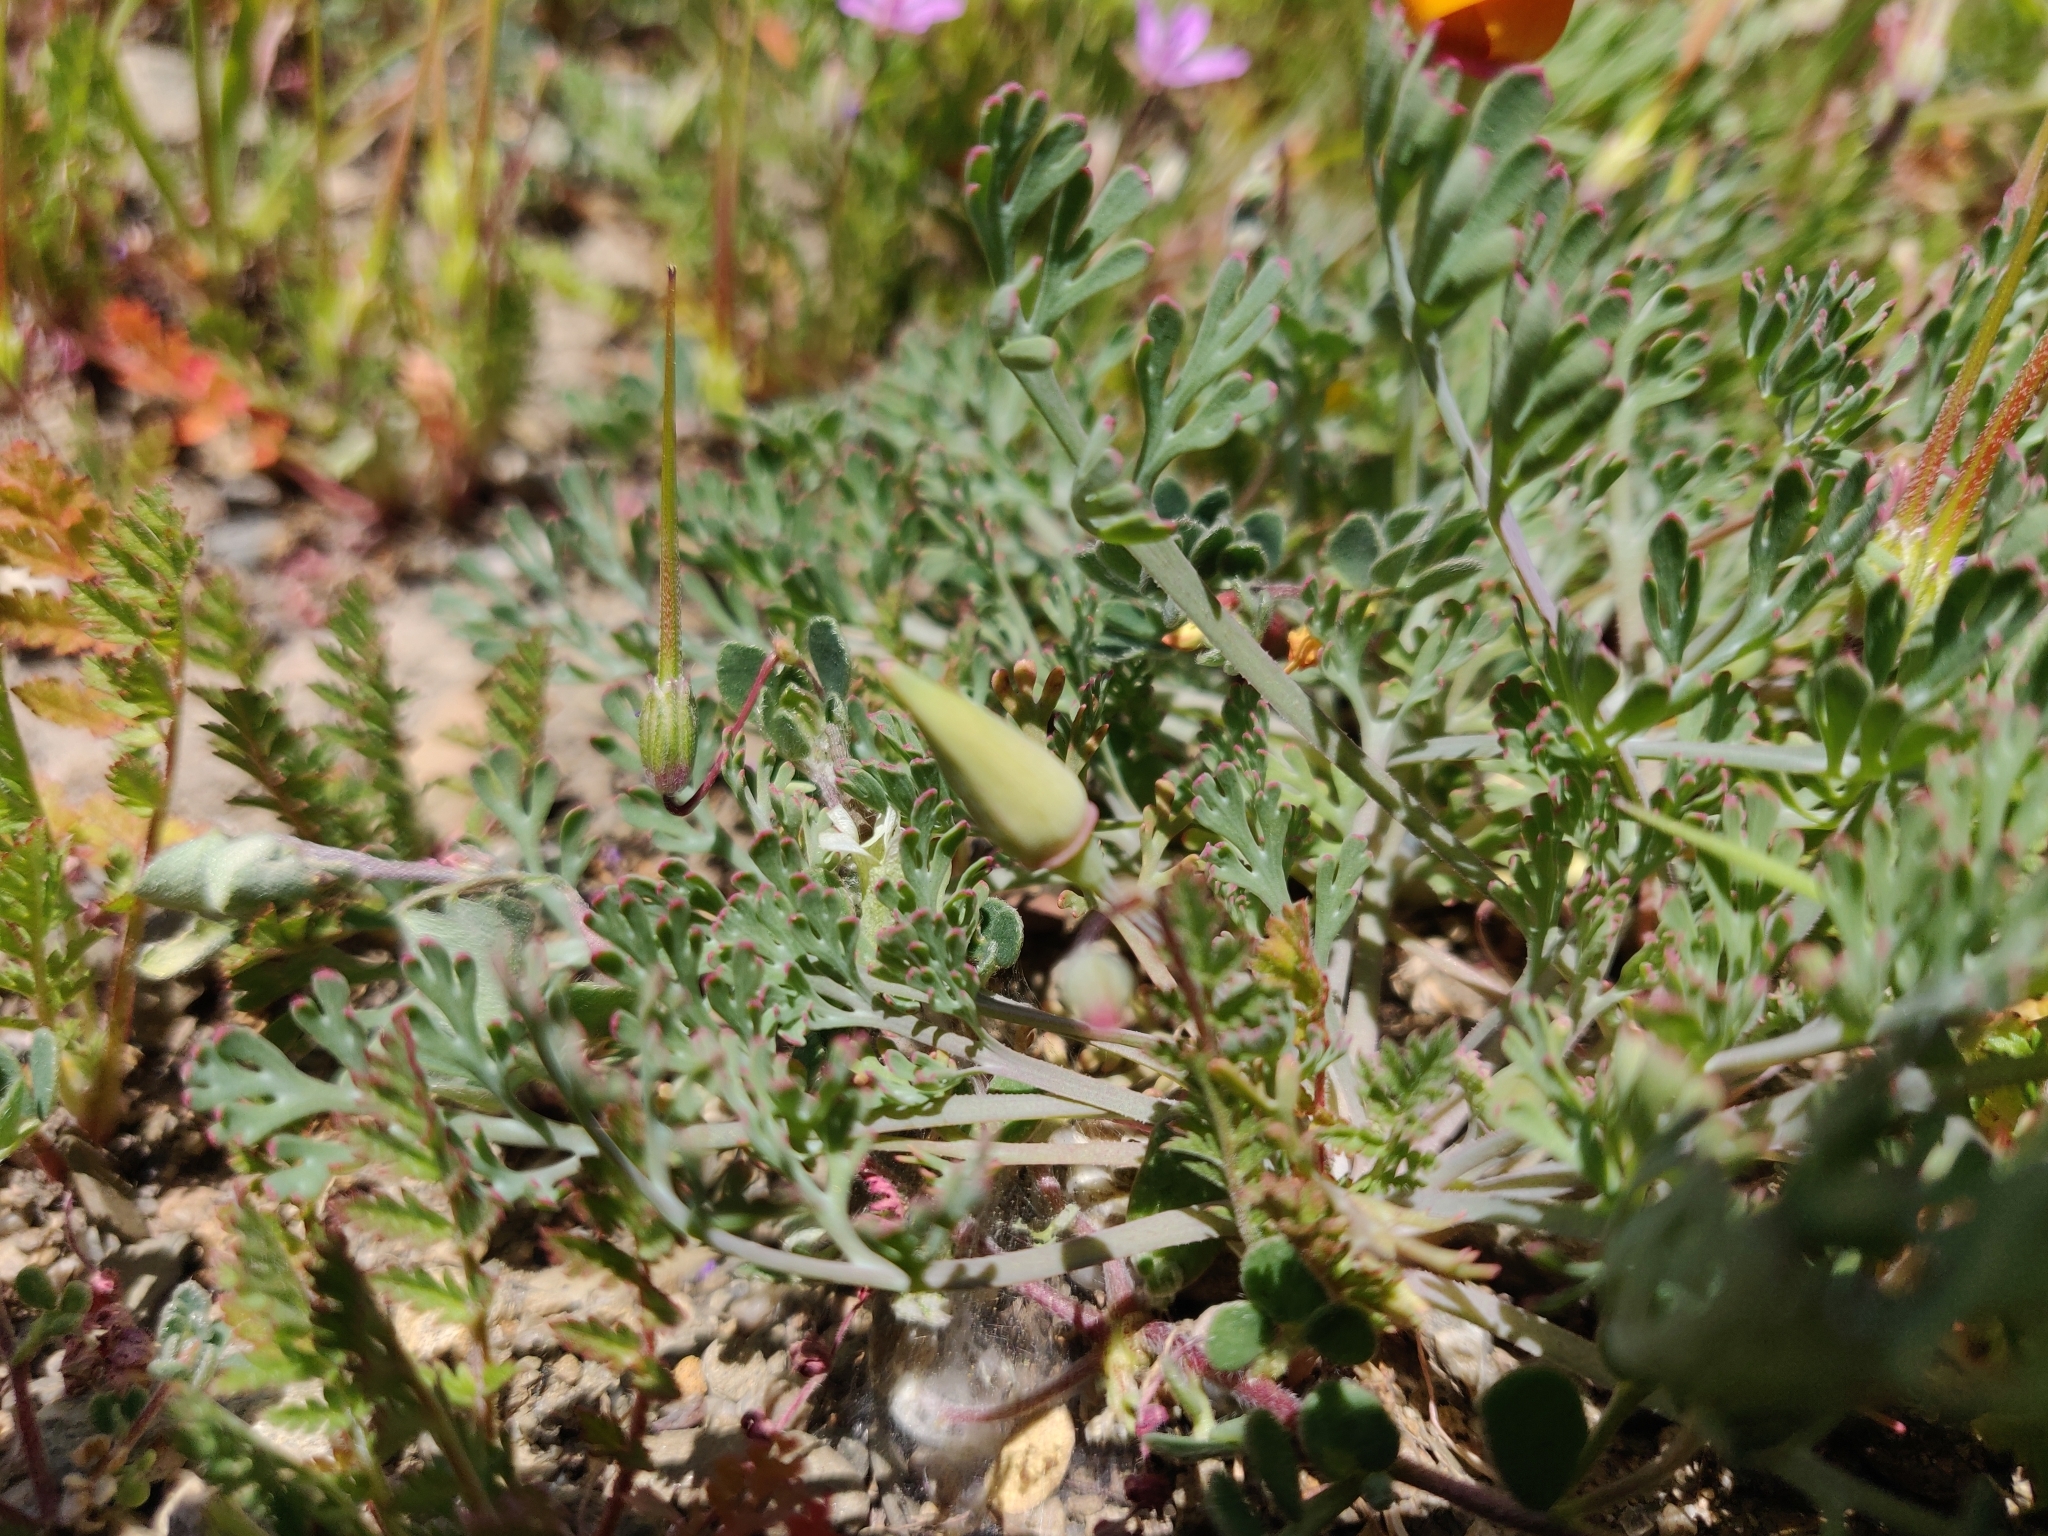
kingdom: Plantae
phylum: Tracheophyta
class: Magnoliopsida
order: Ranunculales
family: Papaveraceae
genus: Eschscholzia
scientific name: Eschscholzia californica
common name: California poppy
